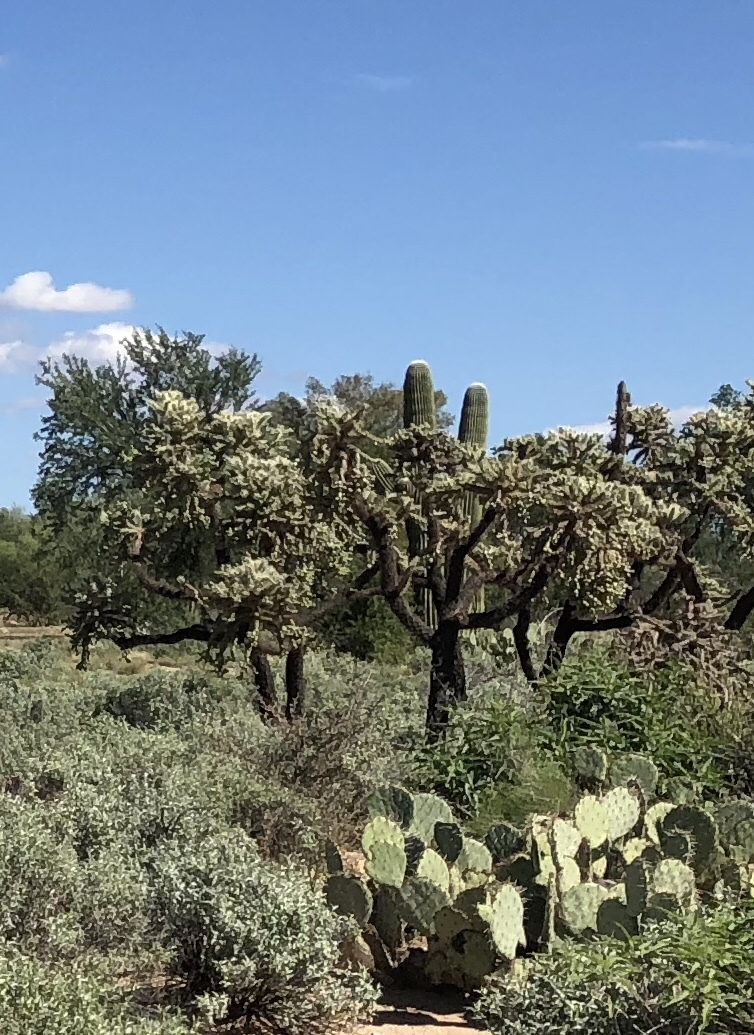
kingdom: Plantae
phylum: Tracheophyta
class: Magnoliopsida
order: Caryophyllales
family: Cactaceae
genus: Cylindropuntia
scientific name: Cylindropuntia fulgida
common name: Jumping cholla
